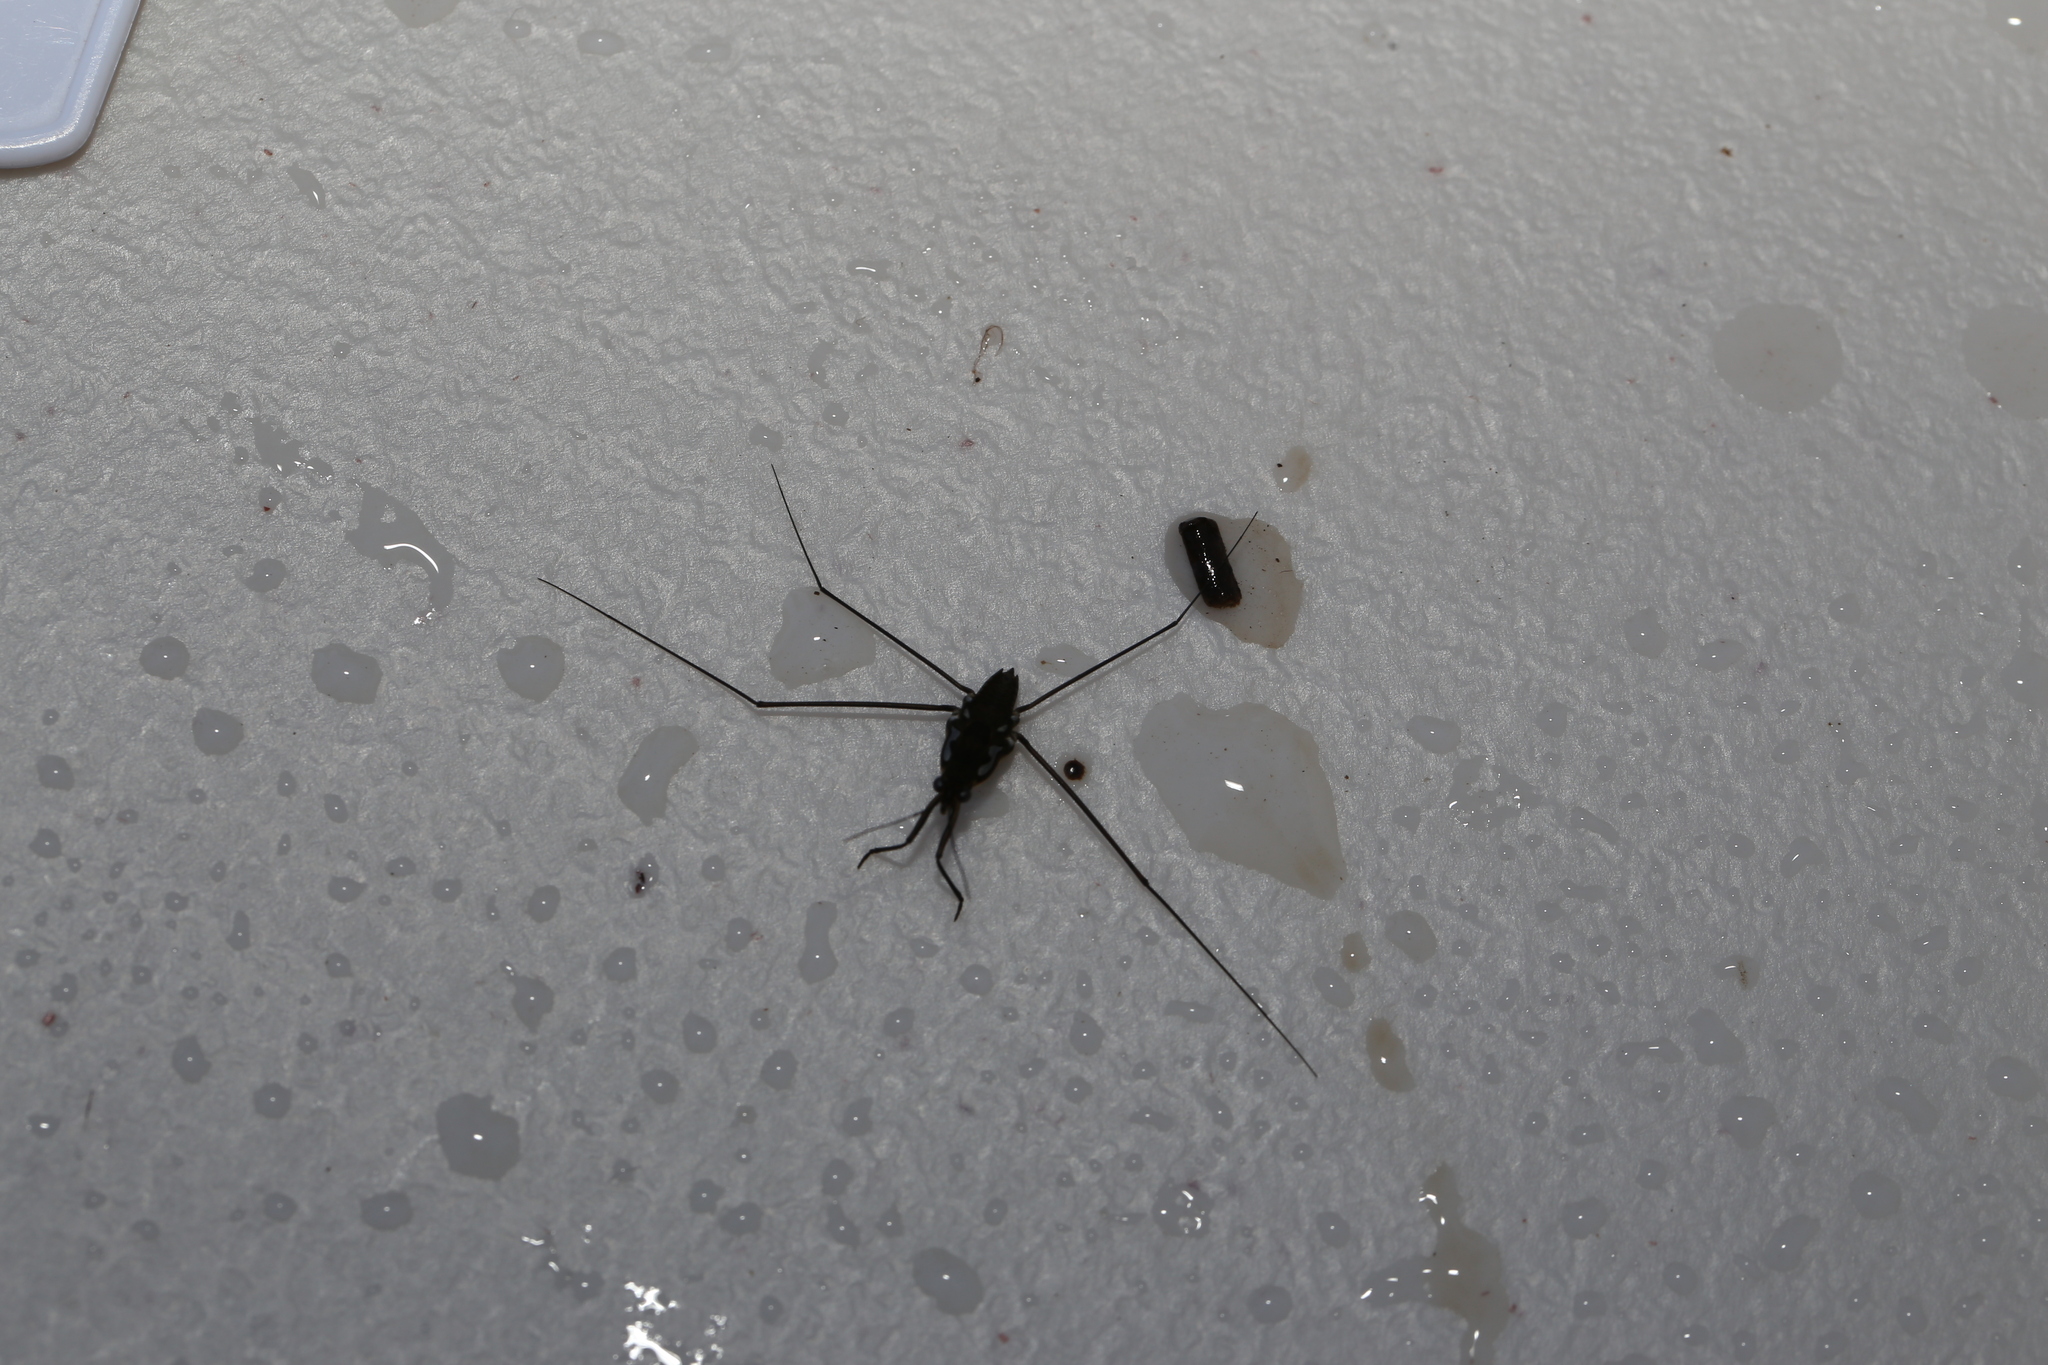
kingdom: Animalia
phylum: Arthropoda
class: Insecta
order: Hemiptera
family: Gerridae
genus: Tenagogerris
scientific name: Tenagogerris euphrosyne
